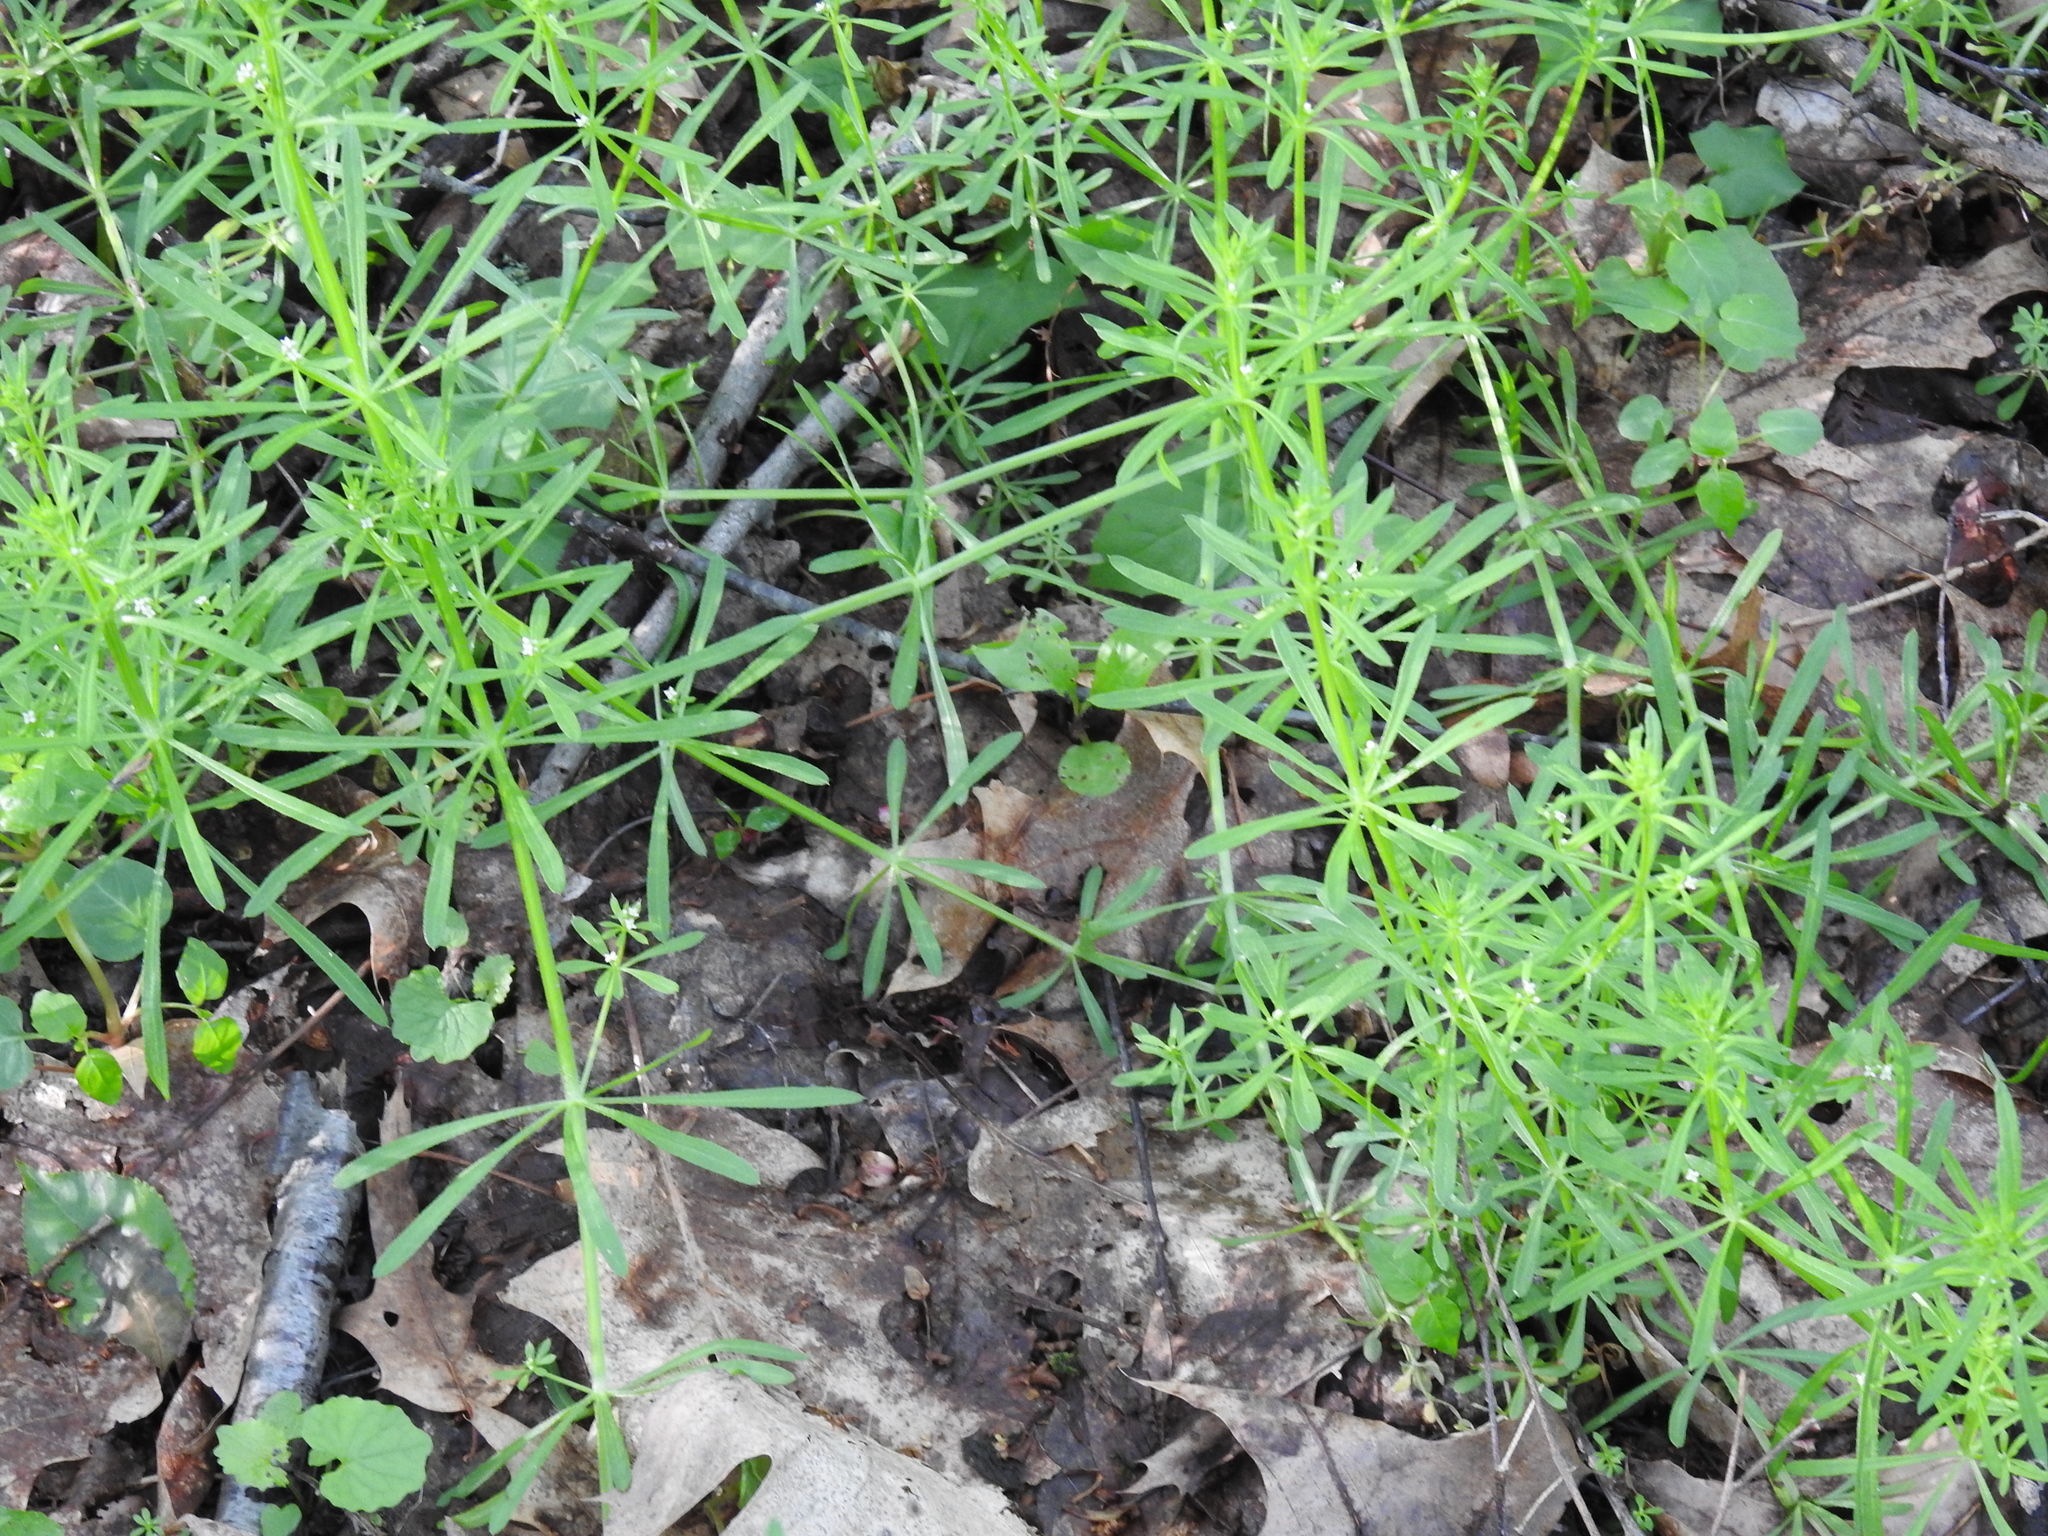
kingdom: Plantae
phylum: Tracheophyta
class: Magnoliopsida
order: Gentianales
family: Rubiaceae
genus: Galium
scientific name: Galium aparine
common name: Cleavers
